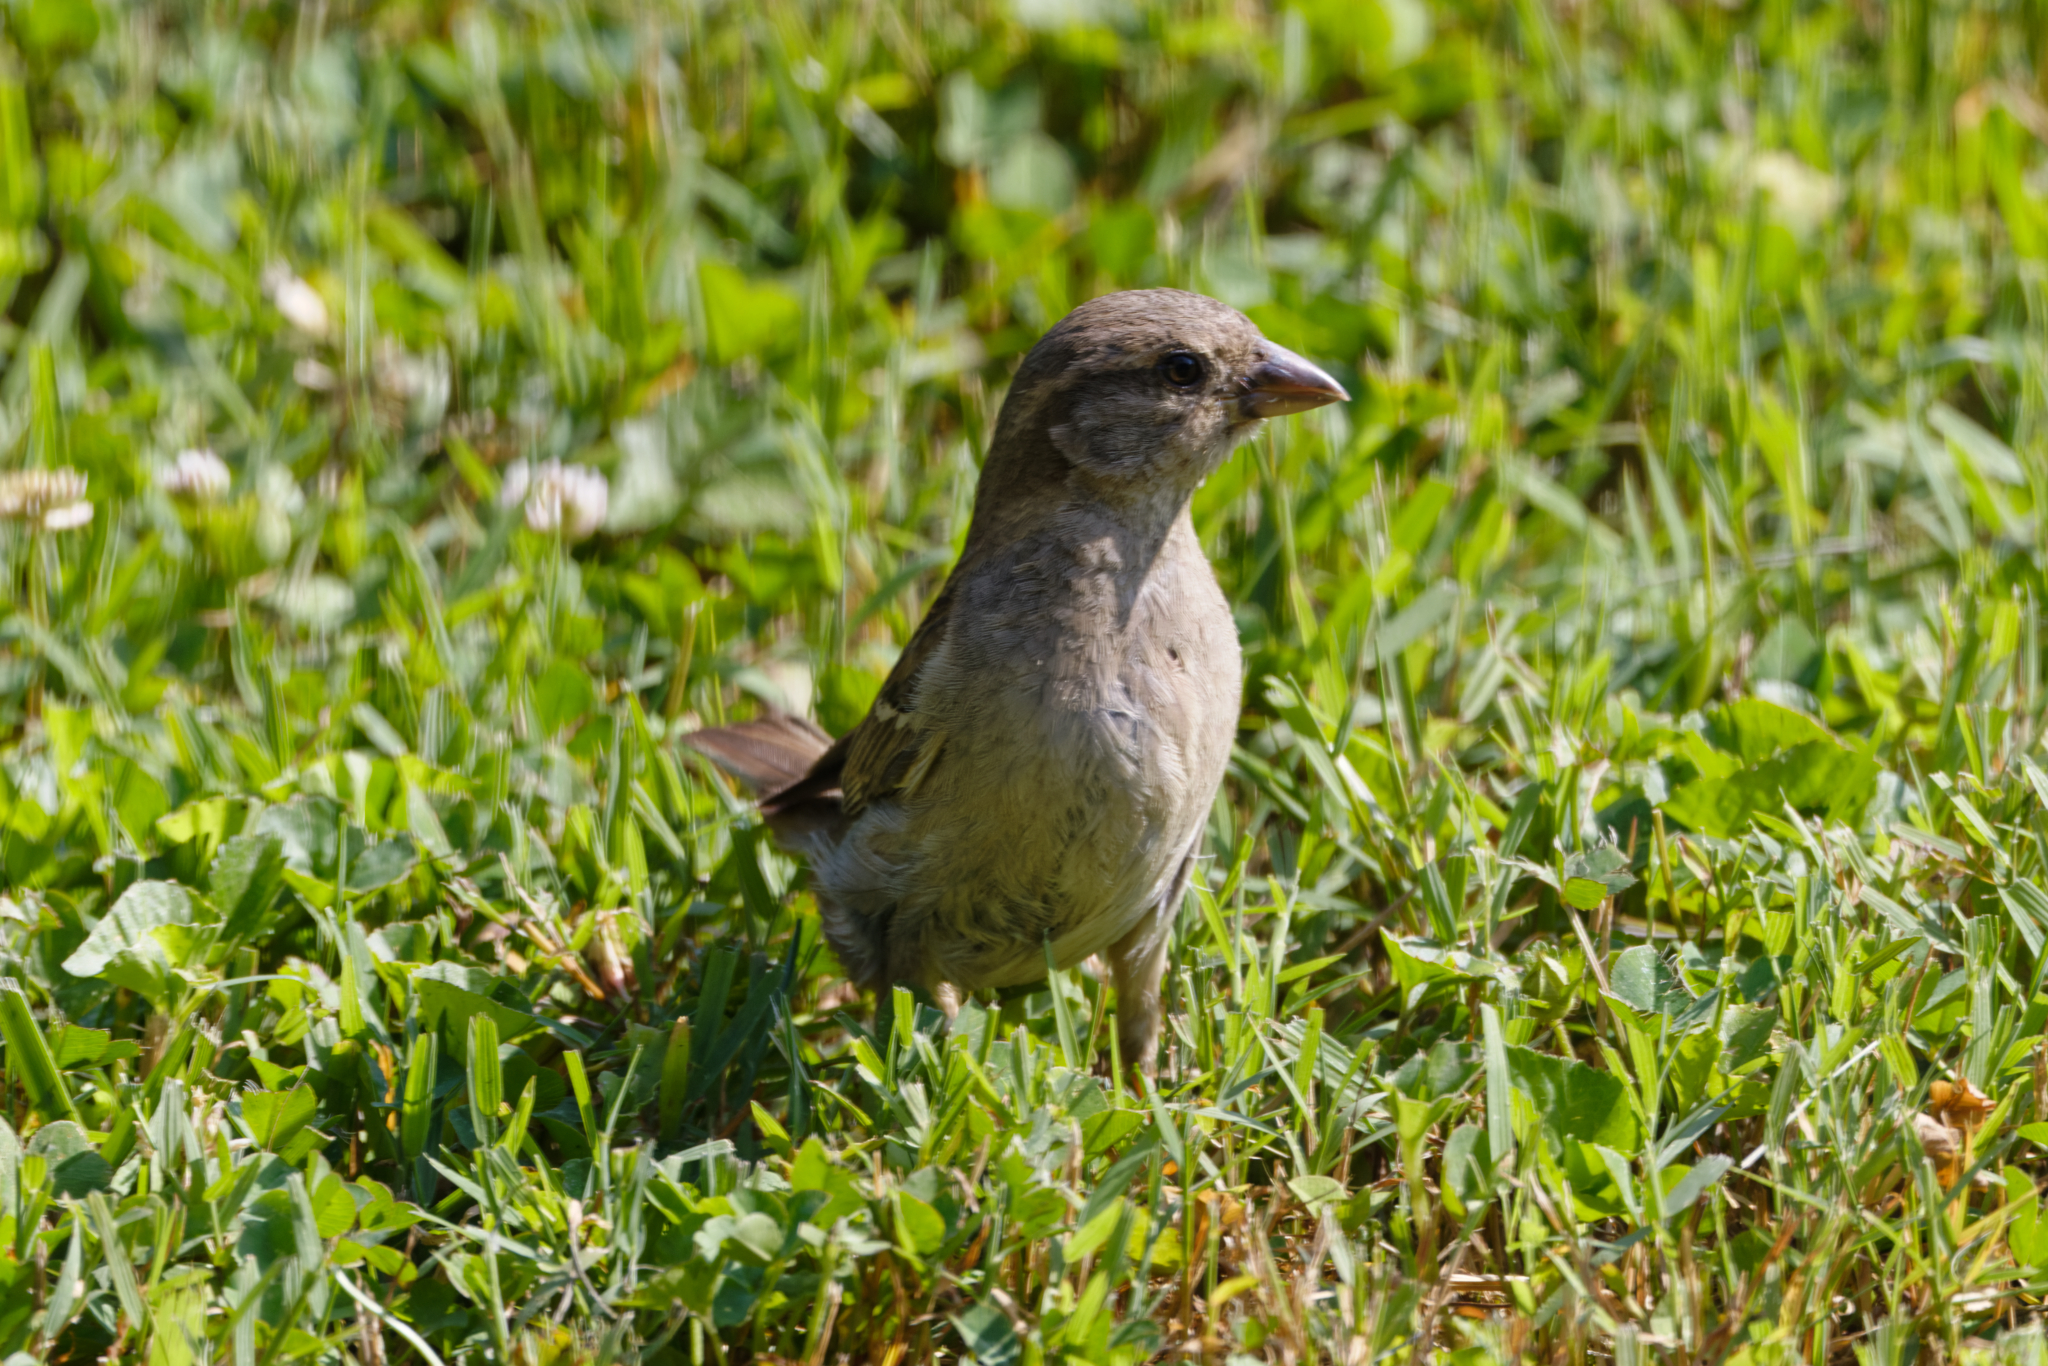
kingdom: Animalia
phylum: Chordata
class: Aves
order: Passeriformes
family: Passeridae
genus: Passer
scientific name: Passer domesticus
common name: House sparrow
